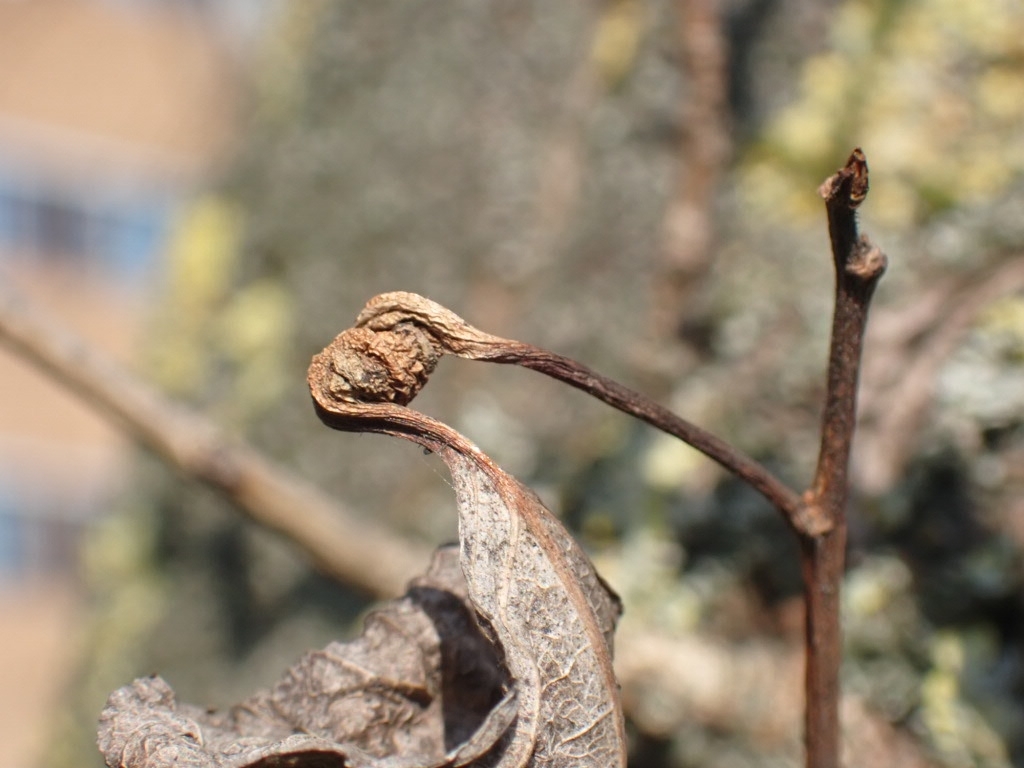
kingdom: Animalia
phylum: Arthropoda
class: Insecta
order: Hemiptera
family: Aphididae
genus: Pemphigus
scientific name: Pemphigus spyrothecae
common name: Aphid
